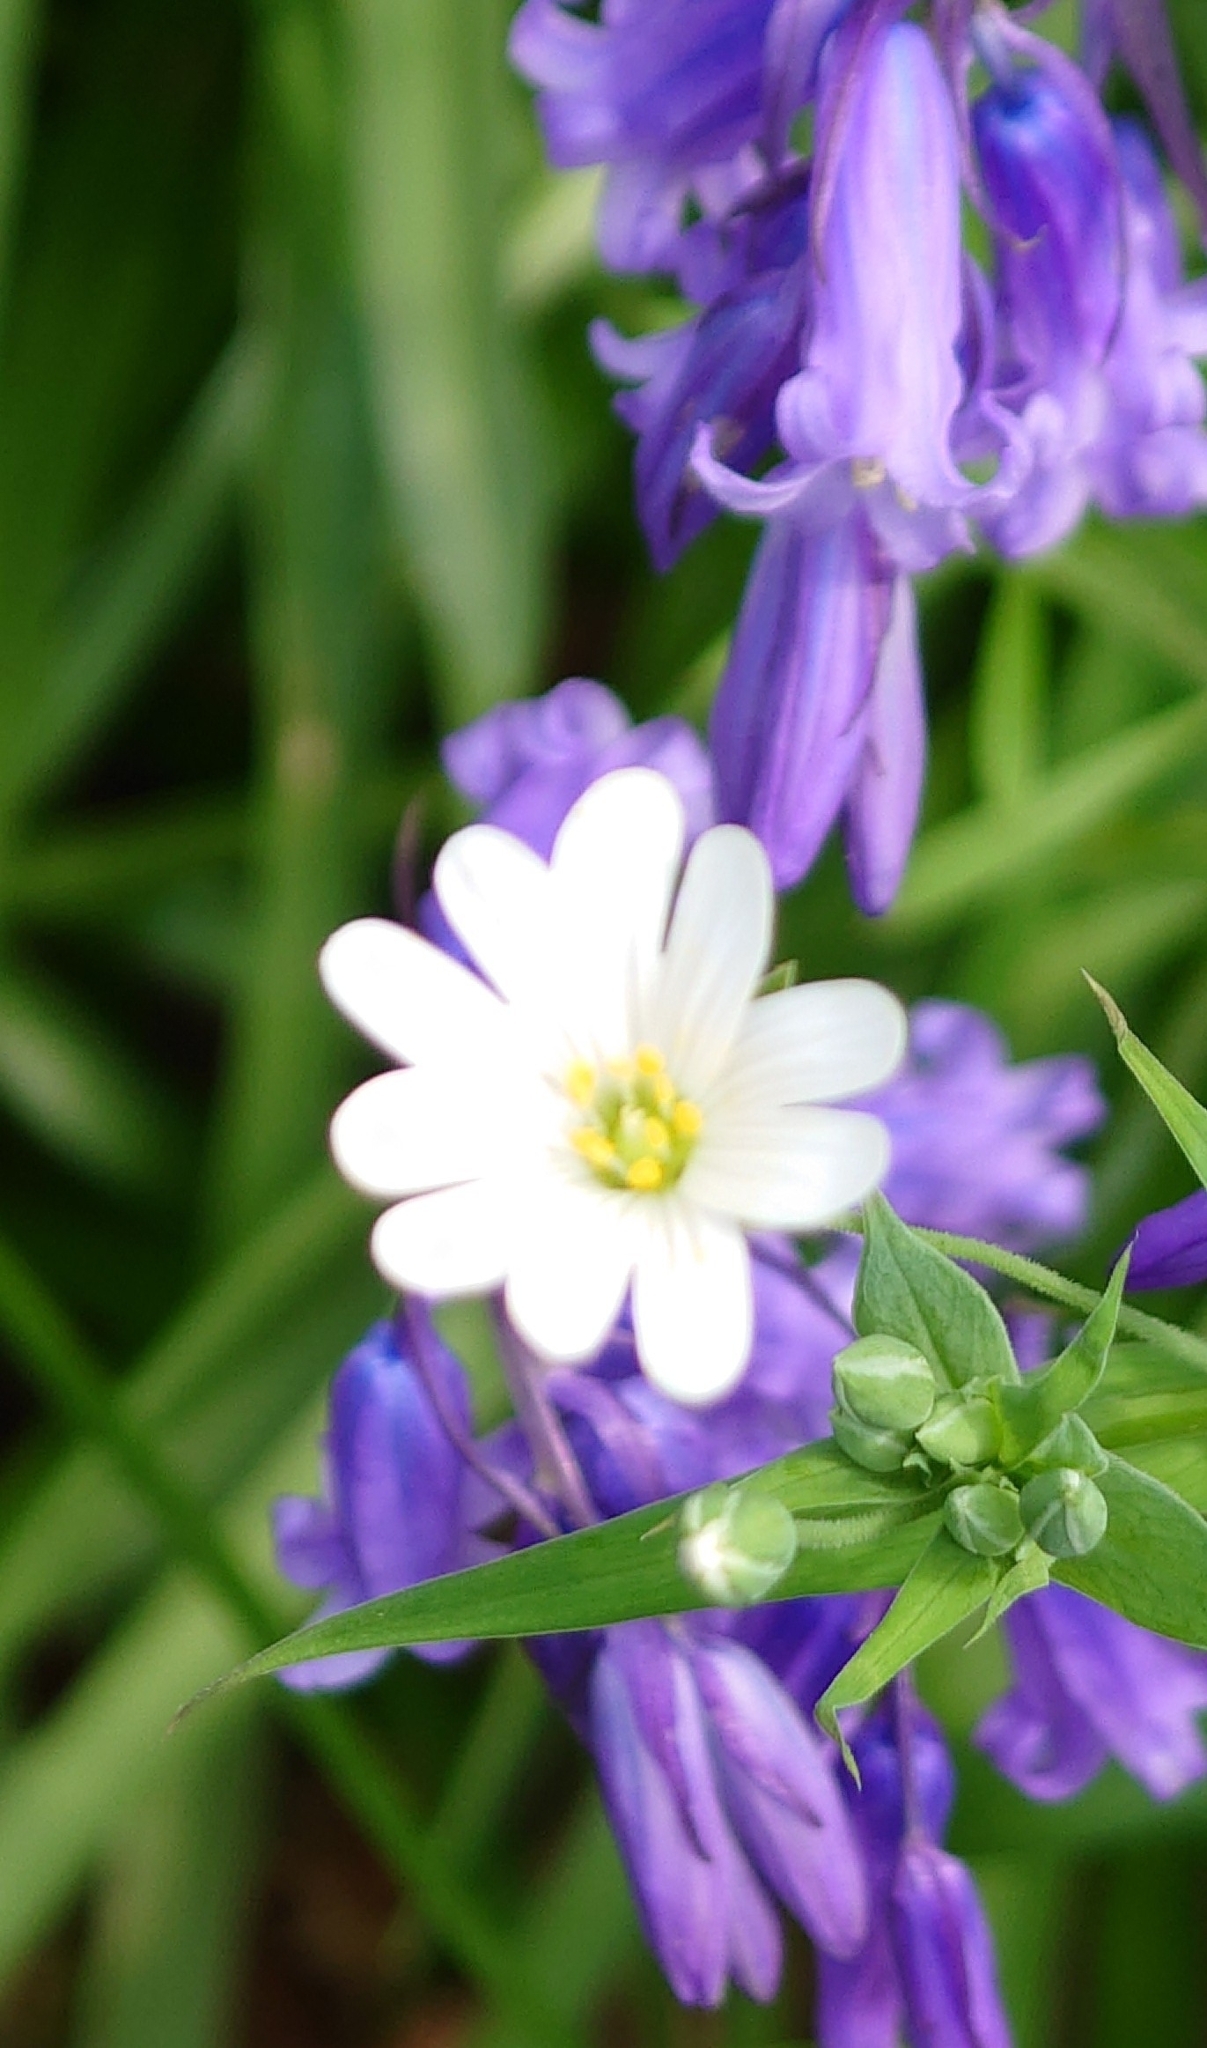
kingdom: Plantae
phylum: Tracheophyta
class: Magnoliopsida
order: Caryophyllales
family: Caryophyllaceae
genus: Rabelera
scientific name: Rabelera holostea
